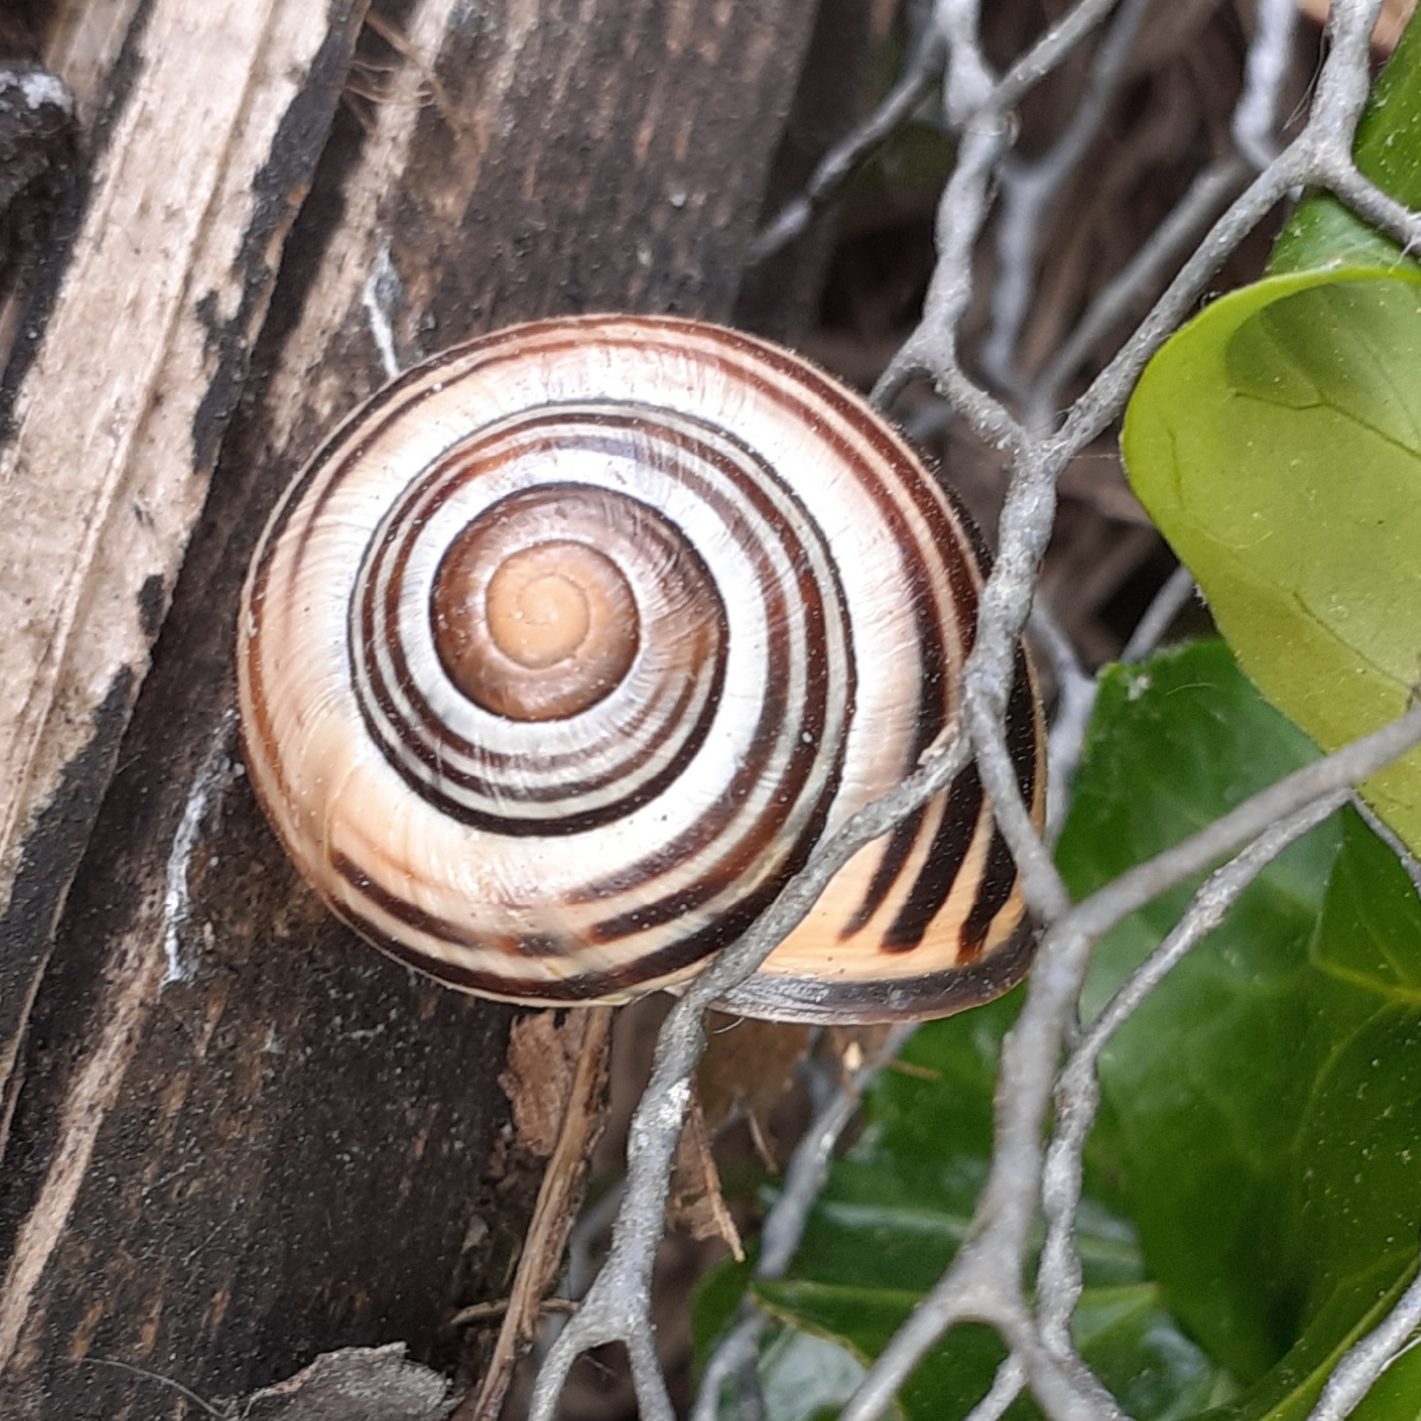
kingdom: Animalia
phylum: Mollusca
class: Gastropoda
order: Stylommatophora
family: Helicidae
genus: Cepaea
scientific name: Cepaea nemoralis
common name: Grovesnail
